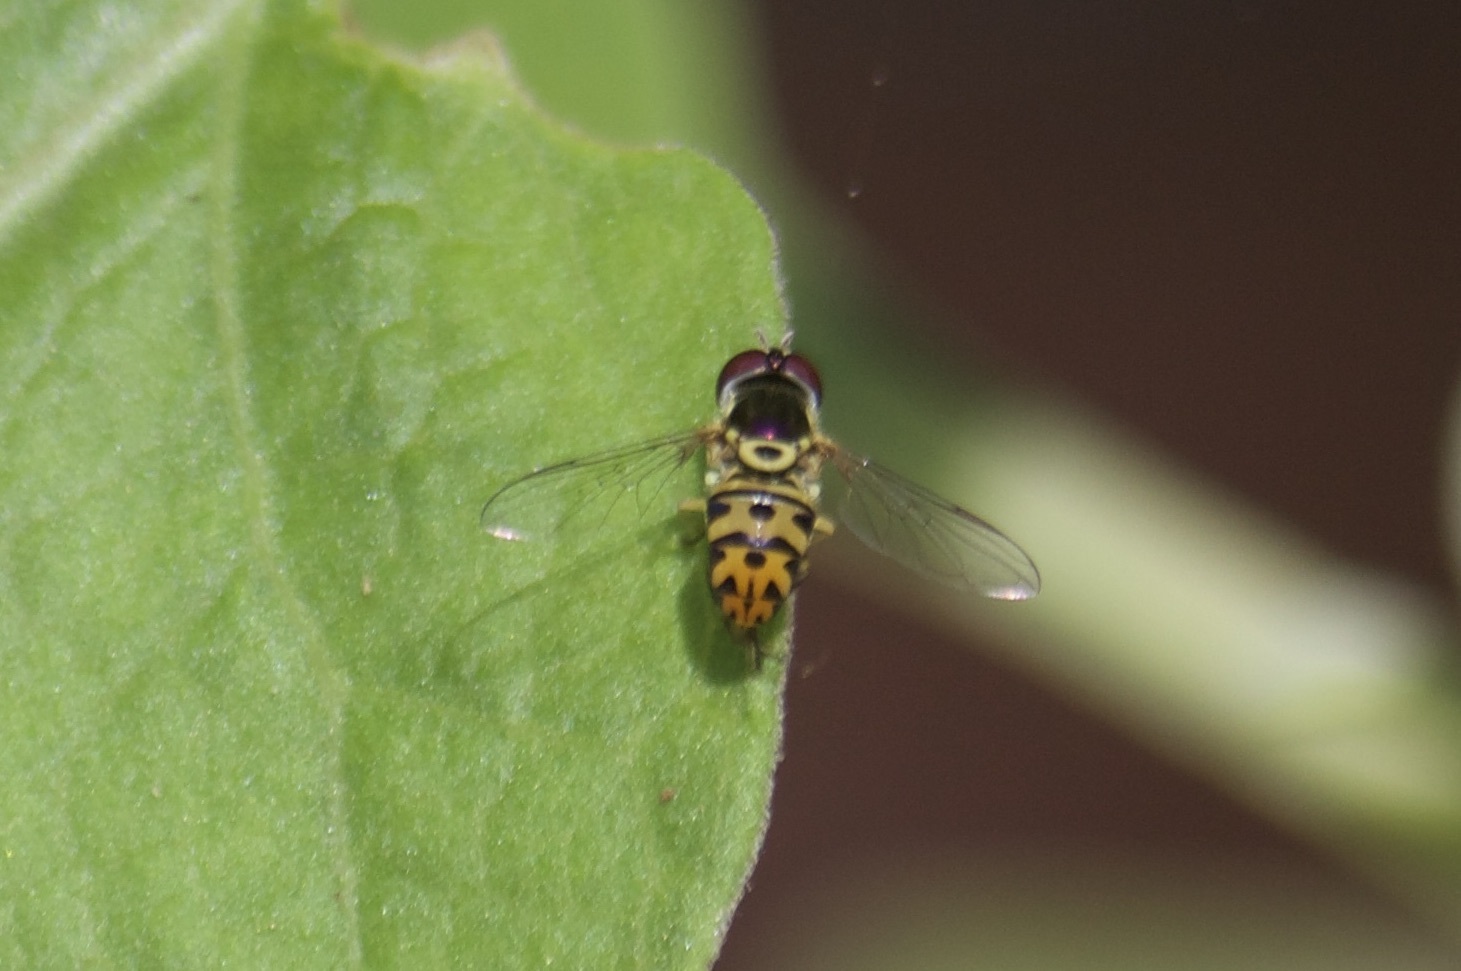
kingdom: Animalia
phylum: Arthropoda
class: Insecta
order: Diptera
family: Syrphidae
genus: Allograpta
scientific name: Allograpta radiata
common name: Syrphid fly
